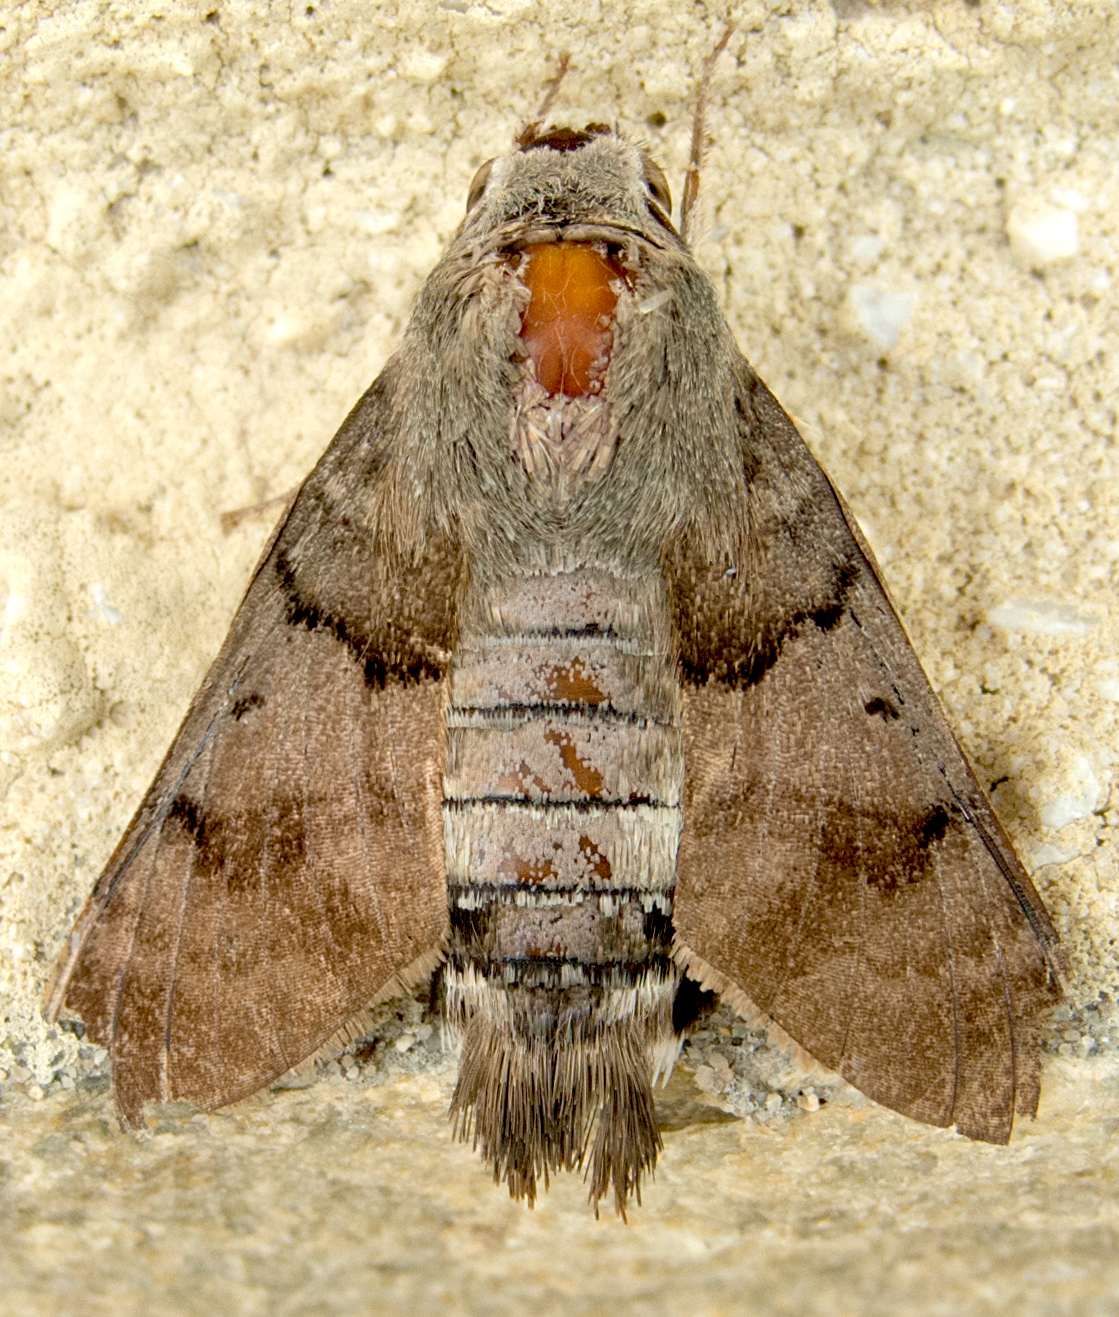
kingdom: Animalia
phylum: Arthropoda
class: Insecta
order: Lepidoptera
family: Sphingidae
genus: Macroglossum
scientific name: Macroglossum stellatarum
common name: Humming-bird hawk-moth
